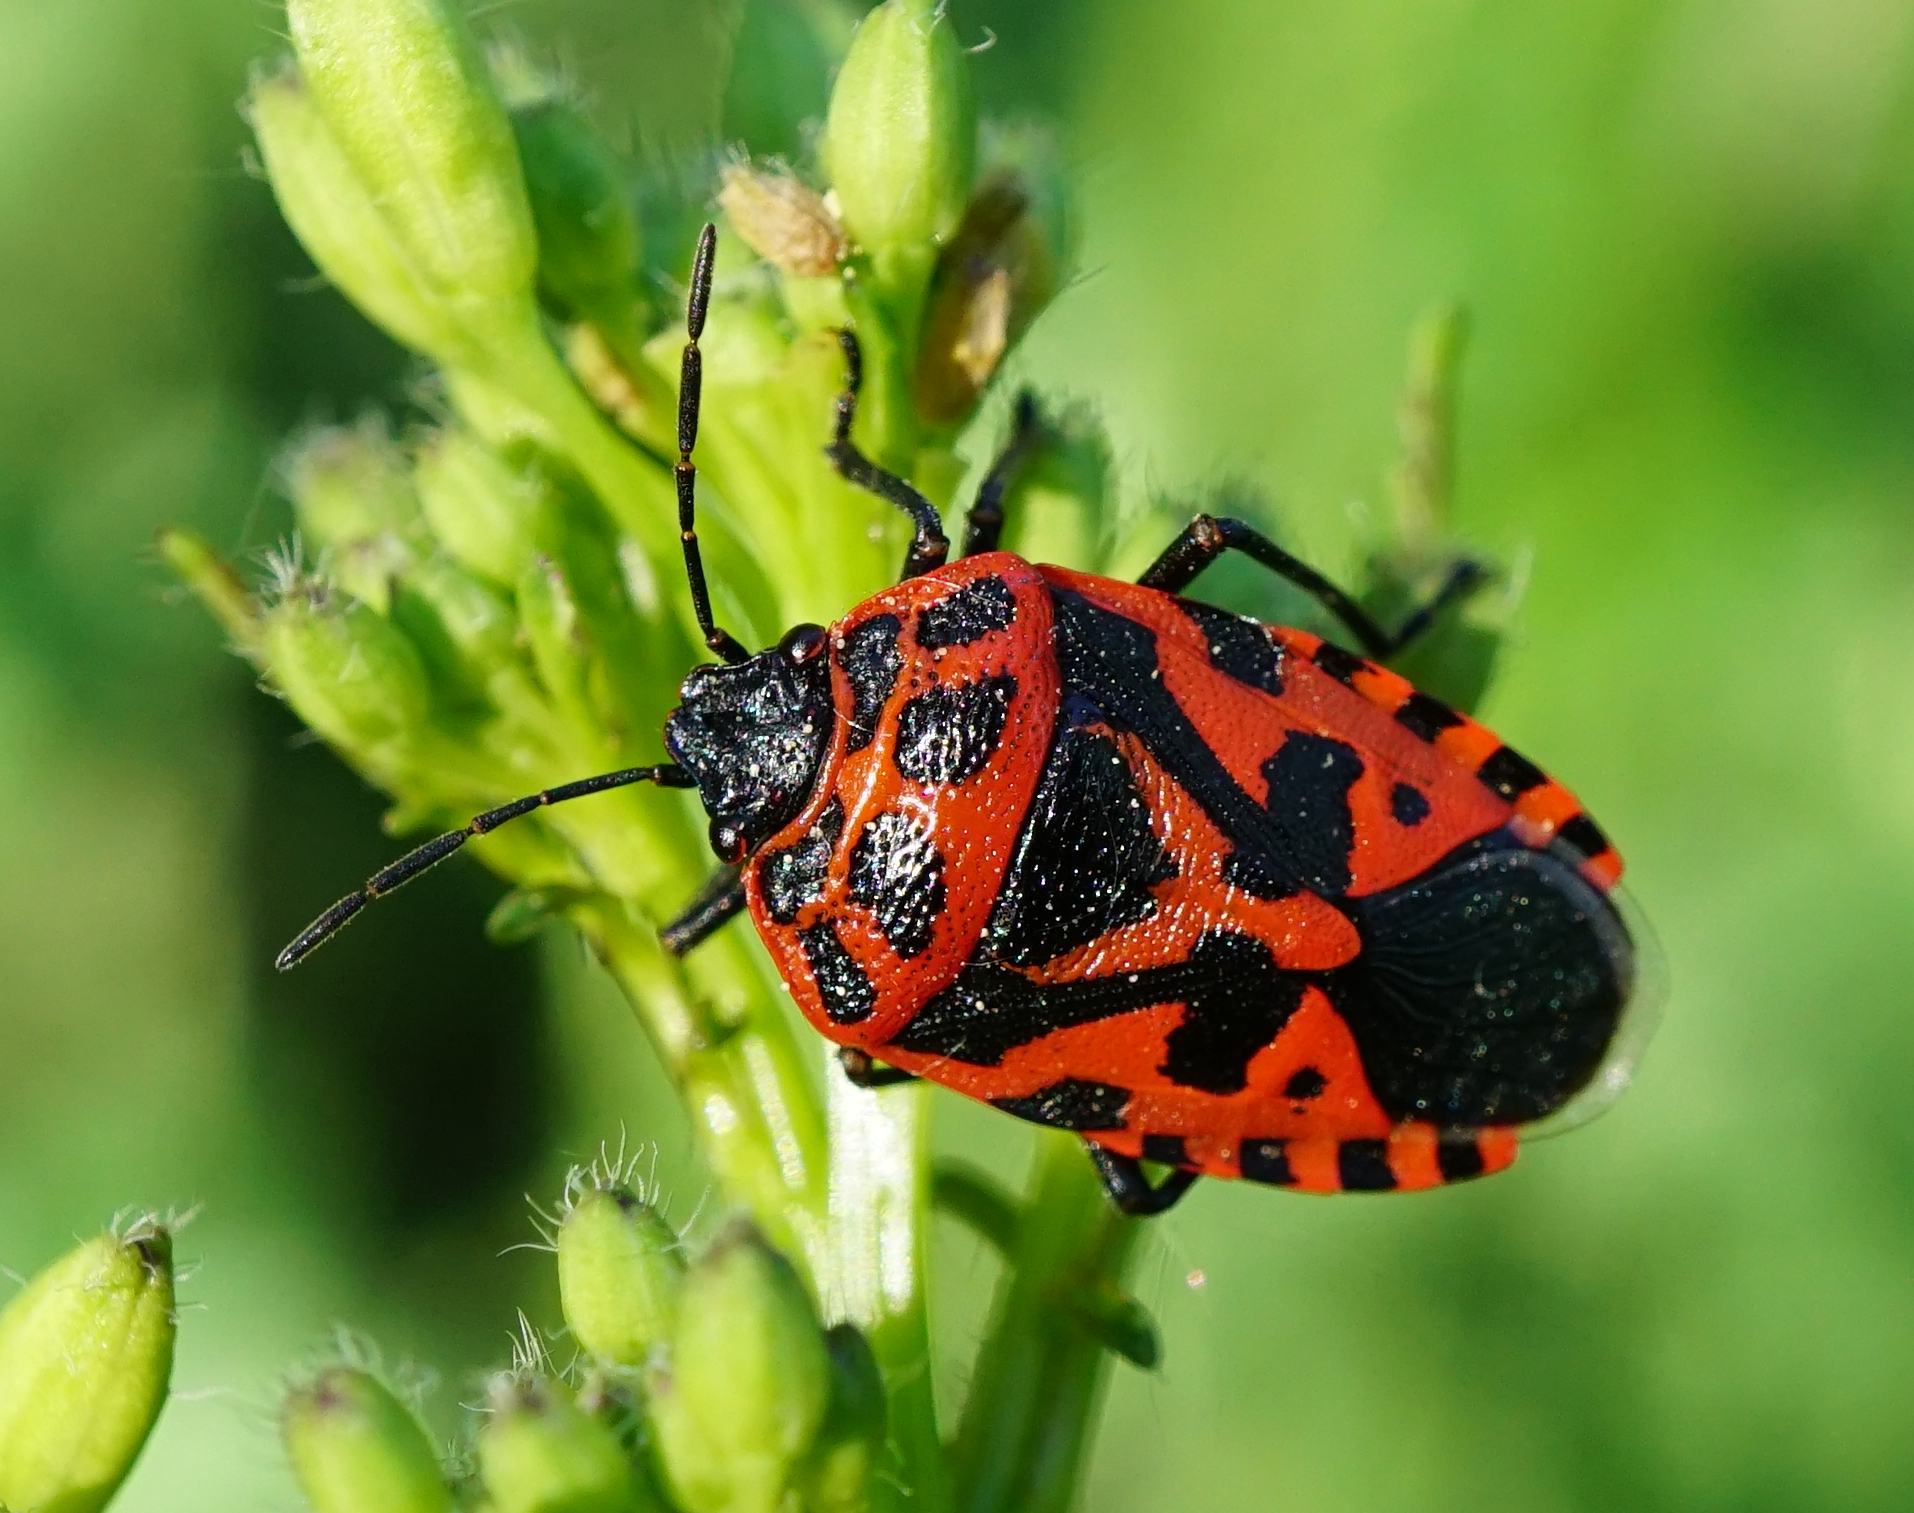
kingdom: Animalia
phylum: Arthropoda
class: Insecta
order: Hemiptera
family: Pentatomidae
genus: Eurydema
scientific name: Eurydema ventralis
